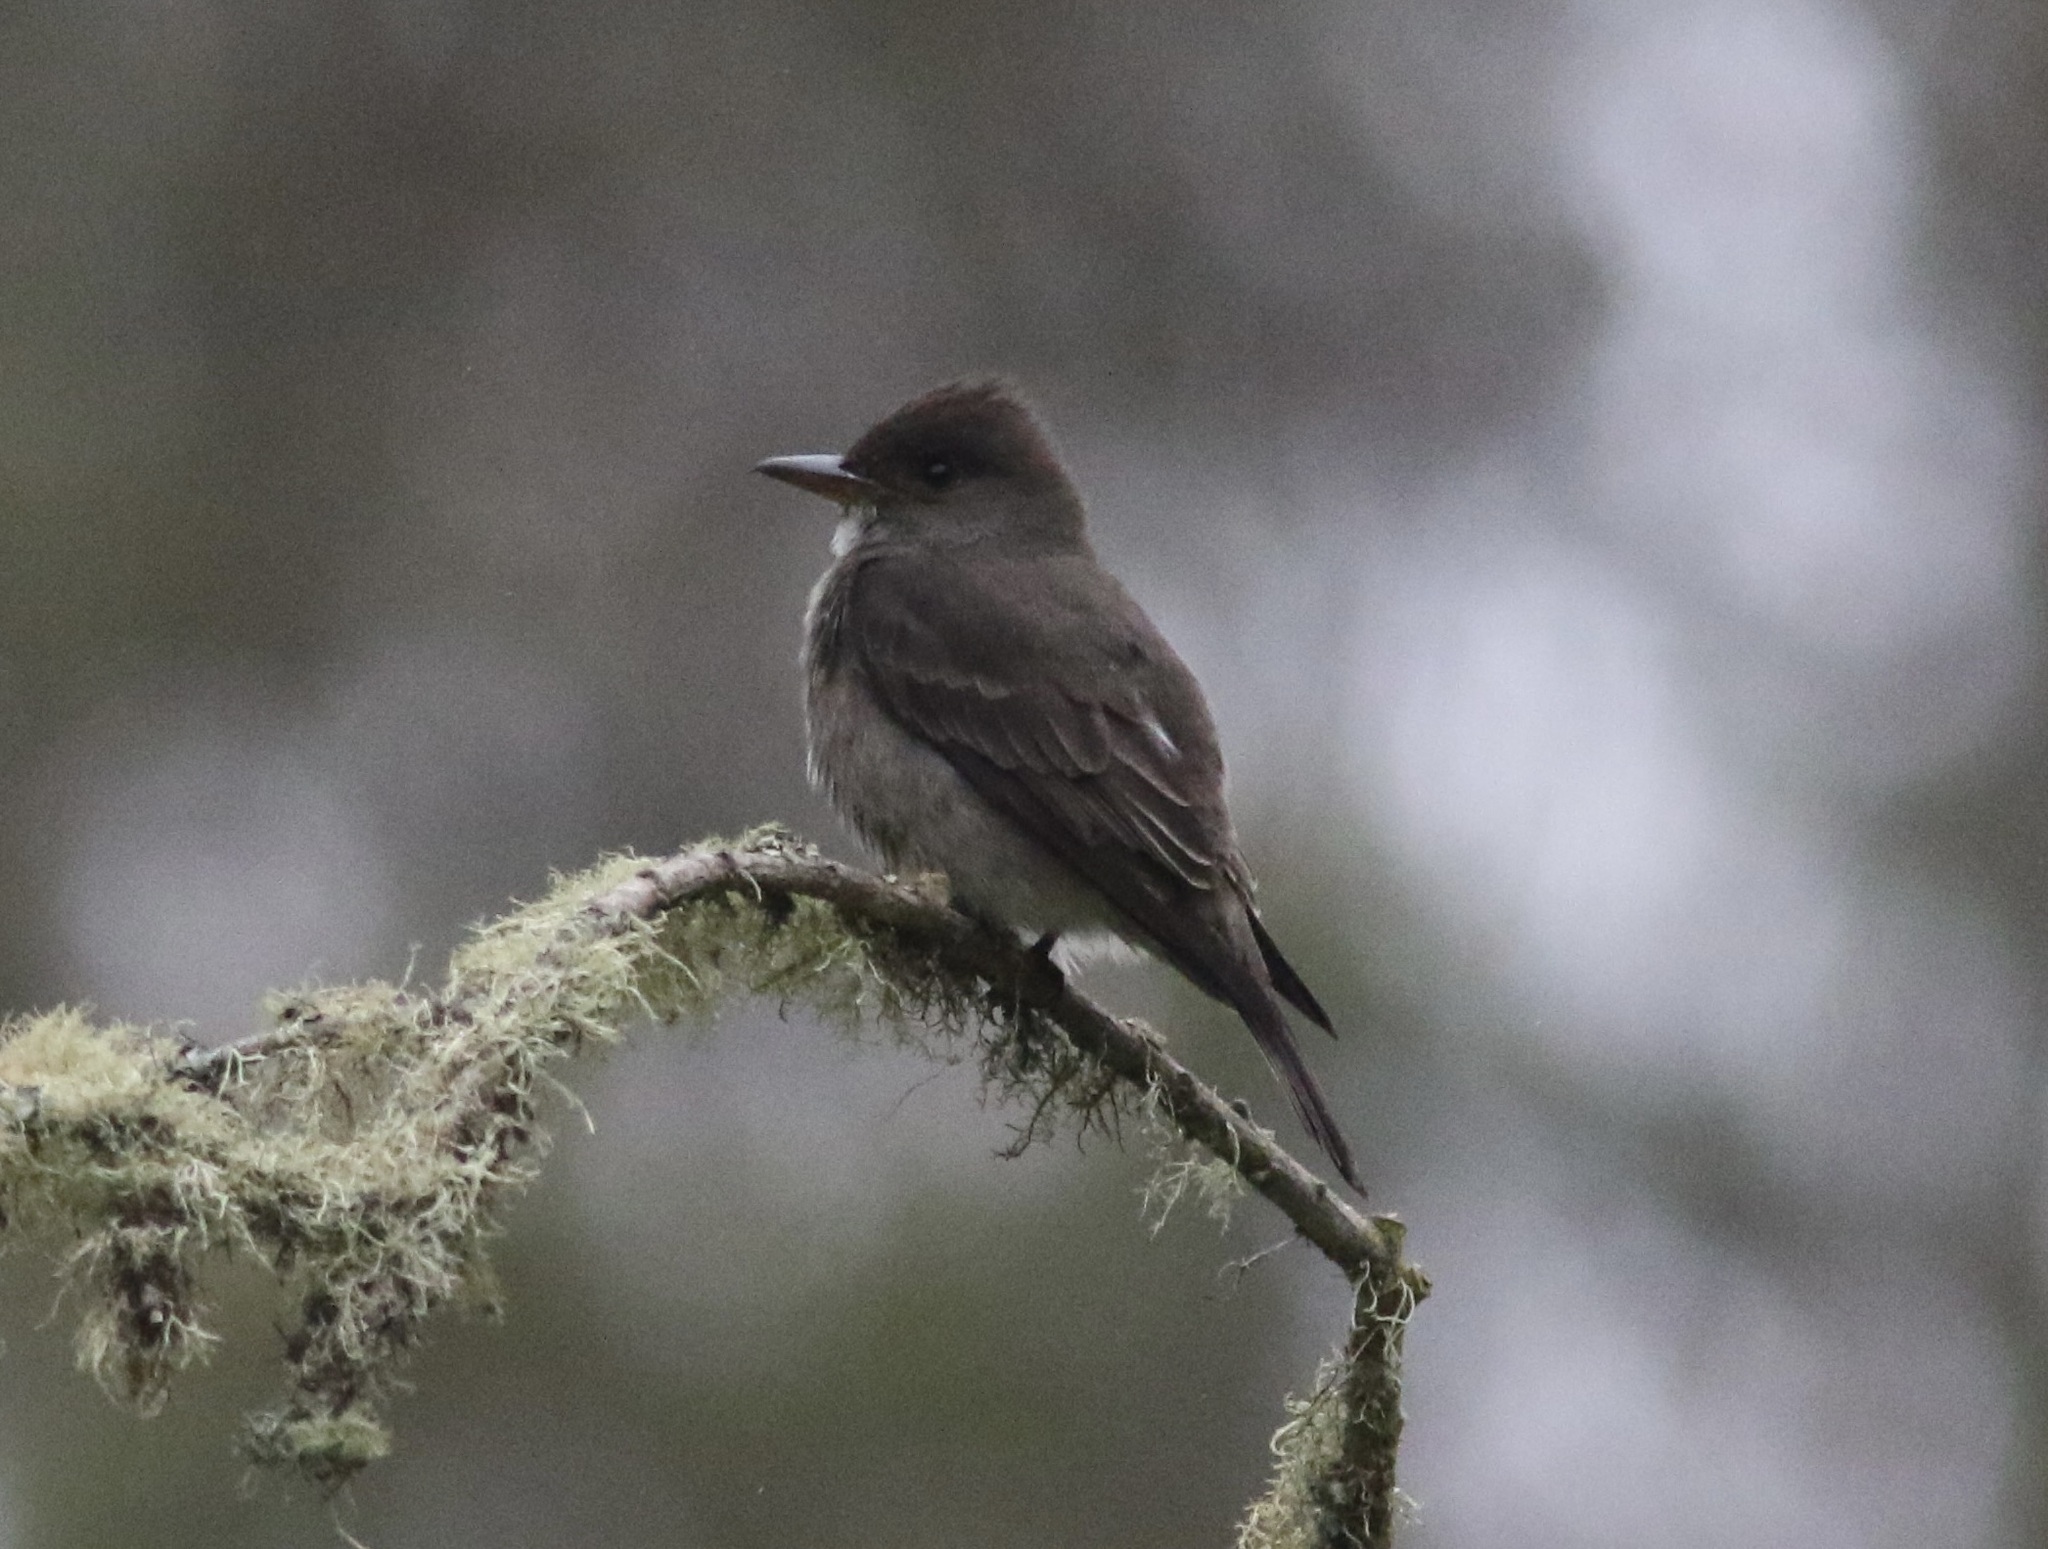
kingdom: Animalia
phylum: Chordata
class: Aves
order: Passeriformes
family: Tyrannidae
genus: Contopus
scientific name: Contopus cooperi
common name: Olive-sided flycatcher
